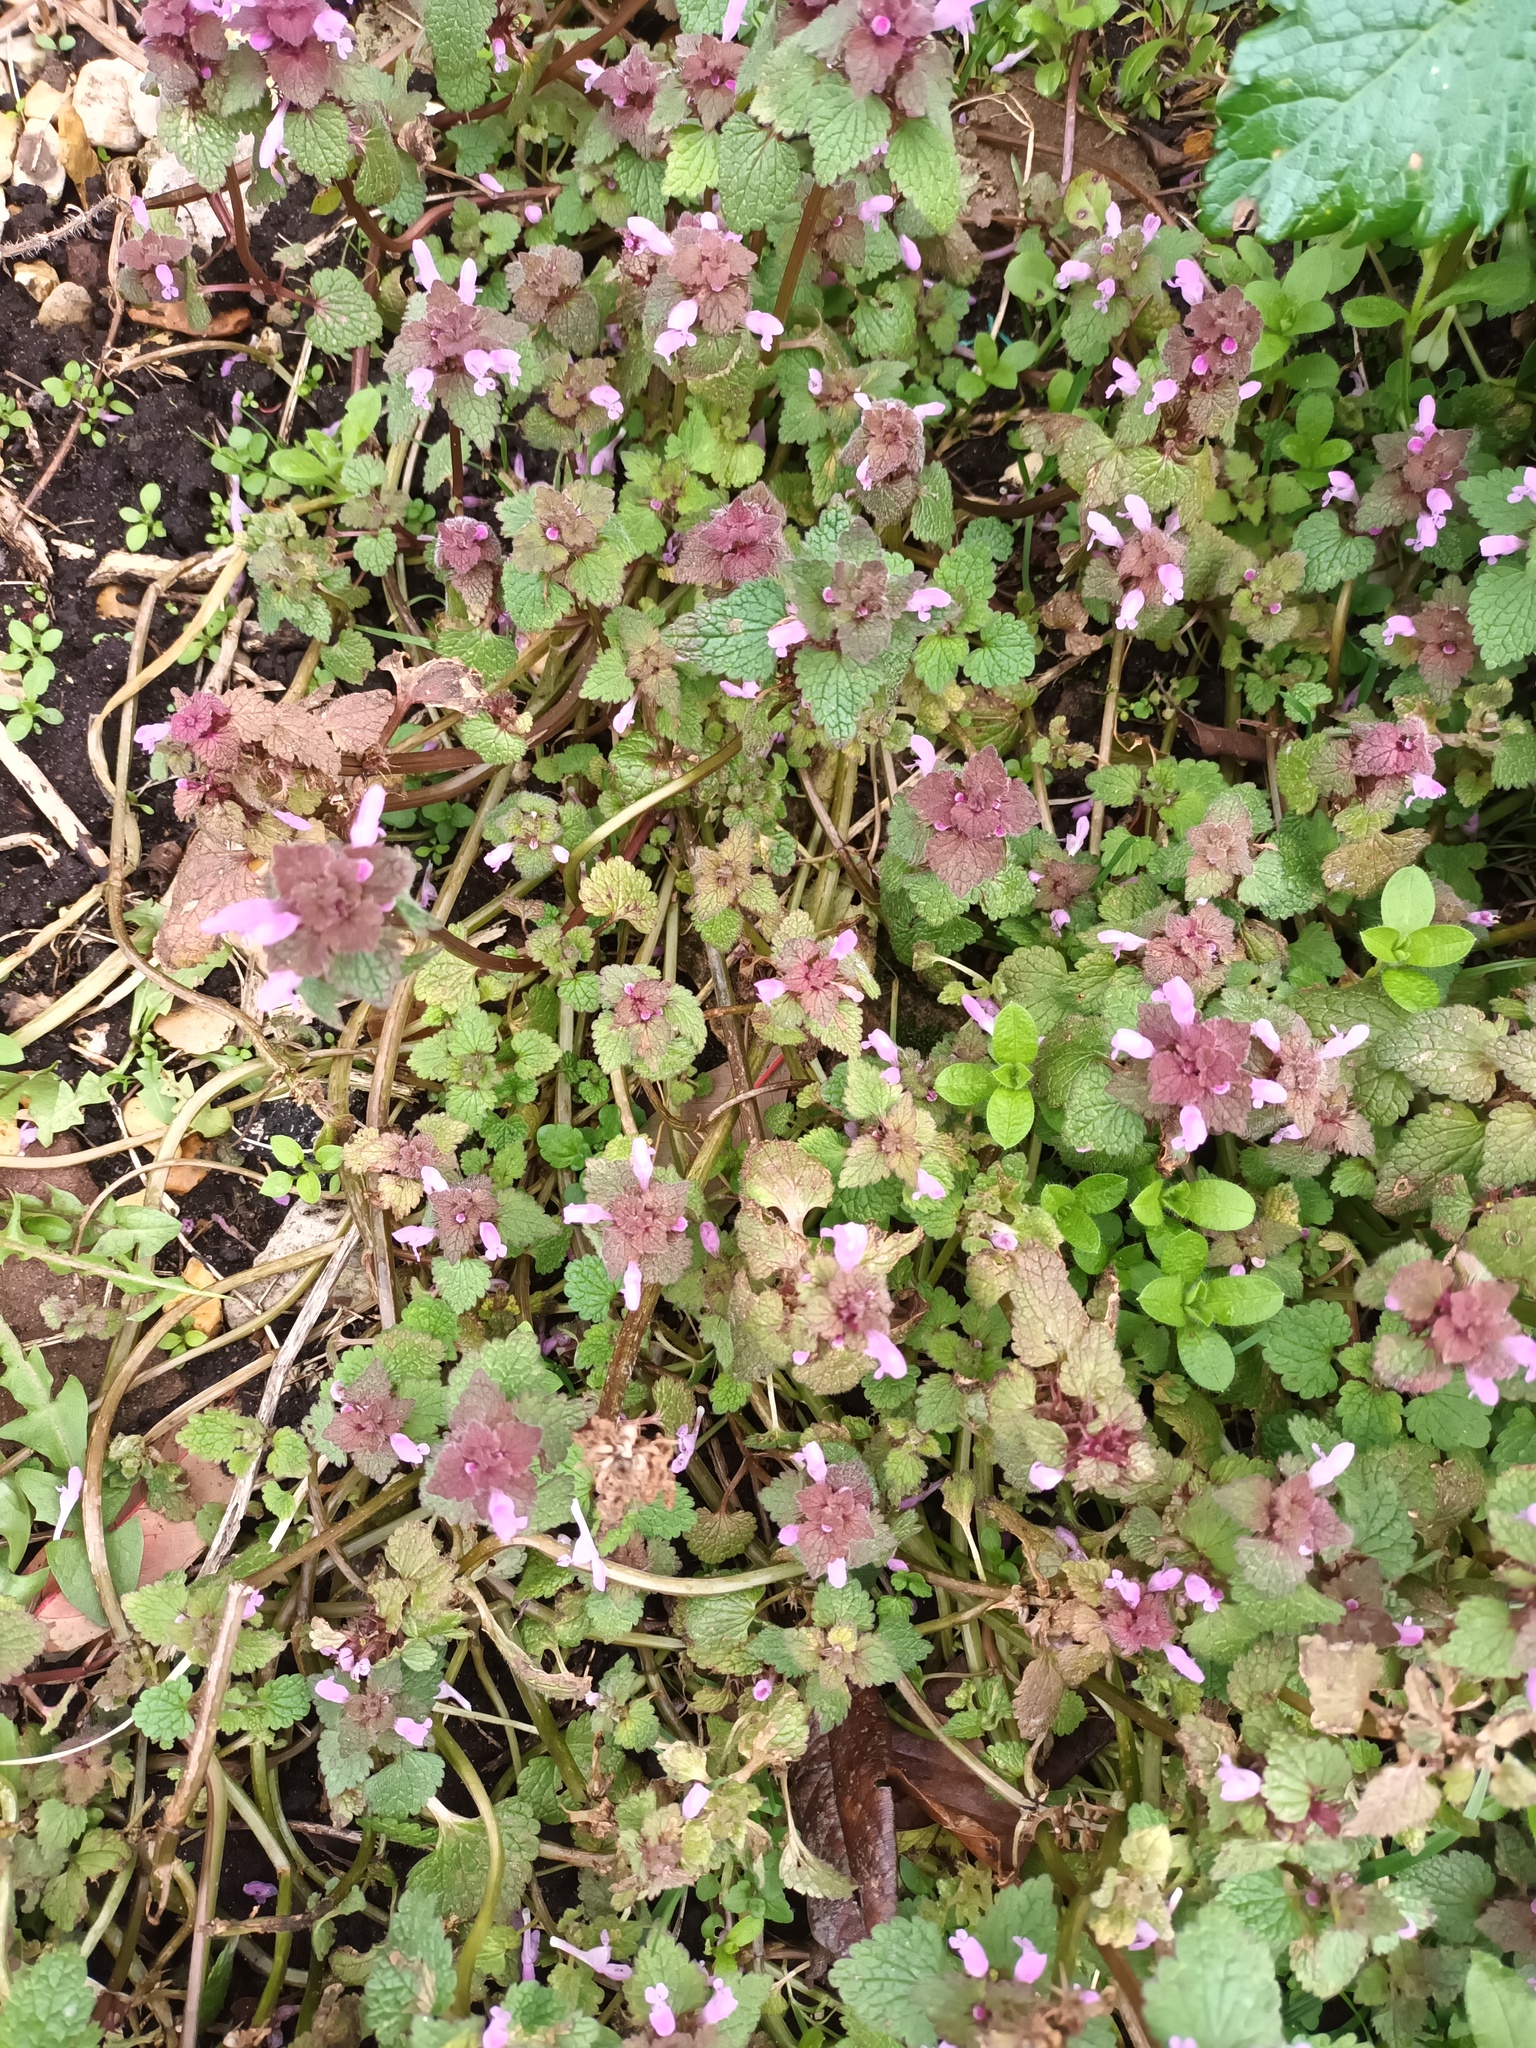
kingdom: Plantae
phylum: Tracheophyta
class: Magnoliopsida
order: Lamiales
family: Lamiaceae
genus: Lamium
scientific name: Lamium purpureum
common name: Red dead-nettle
